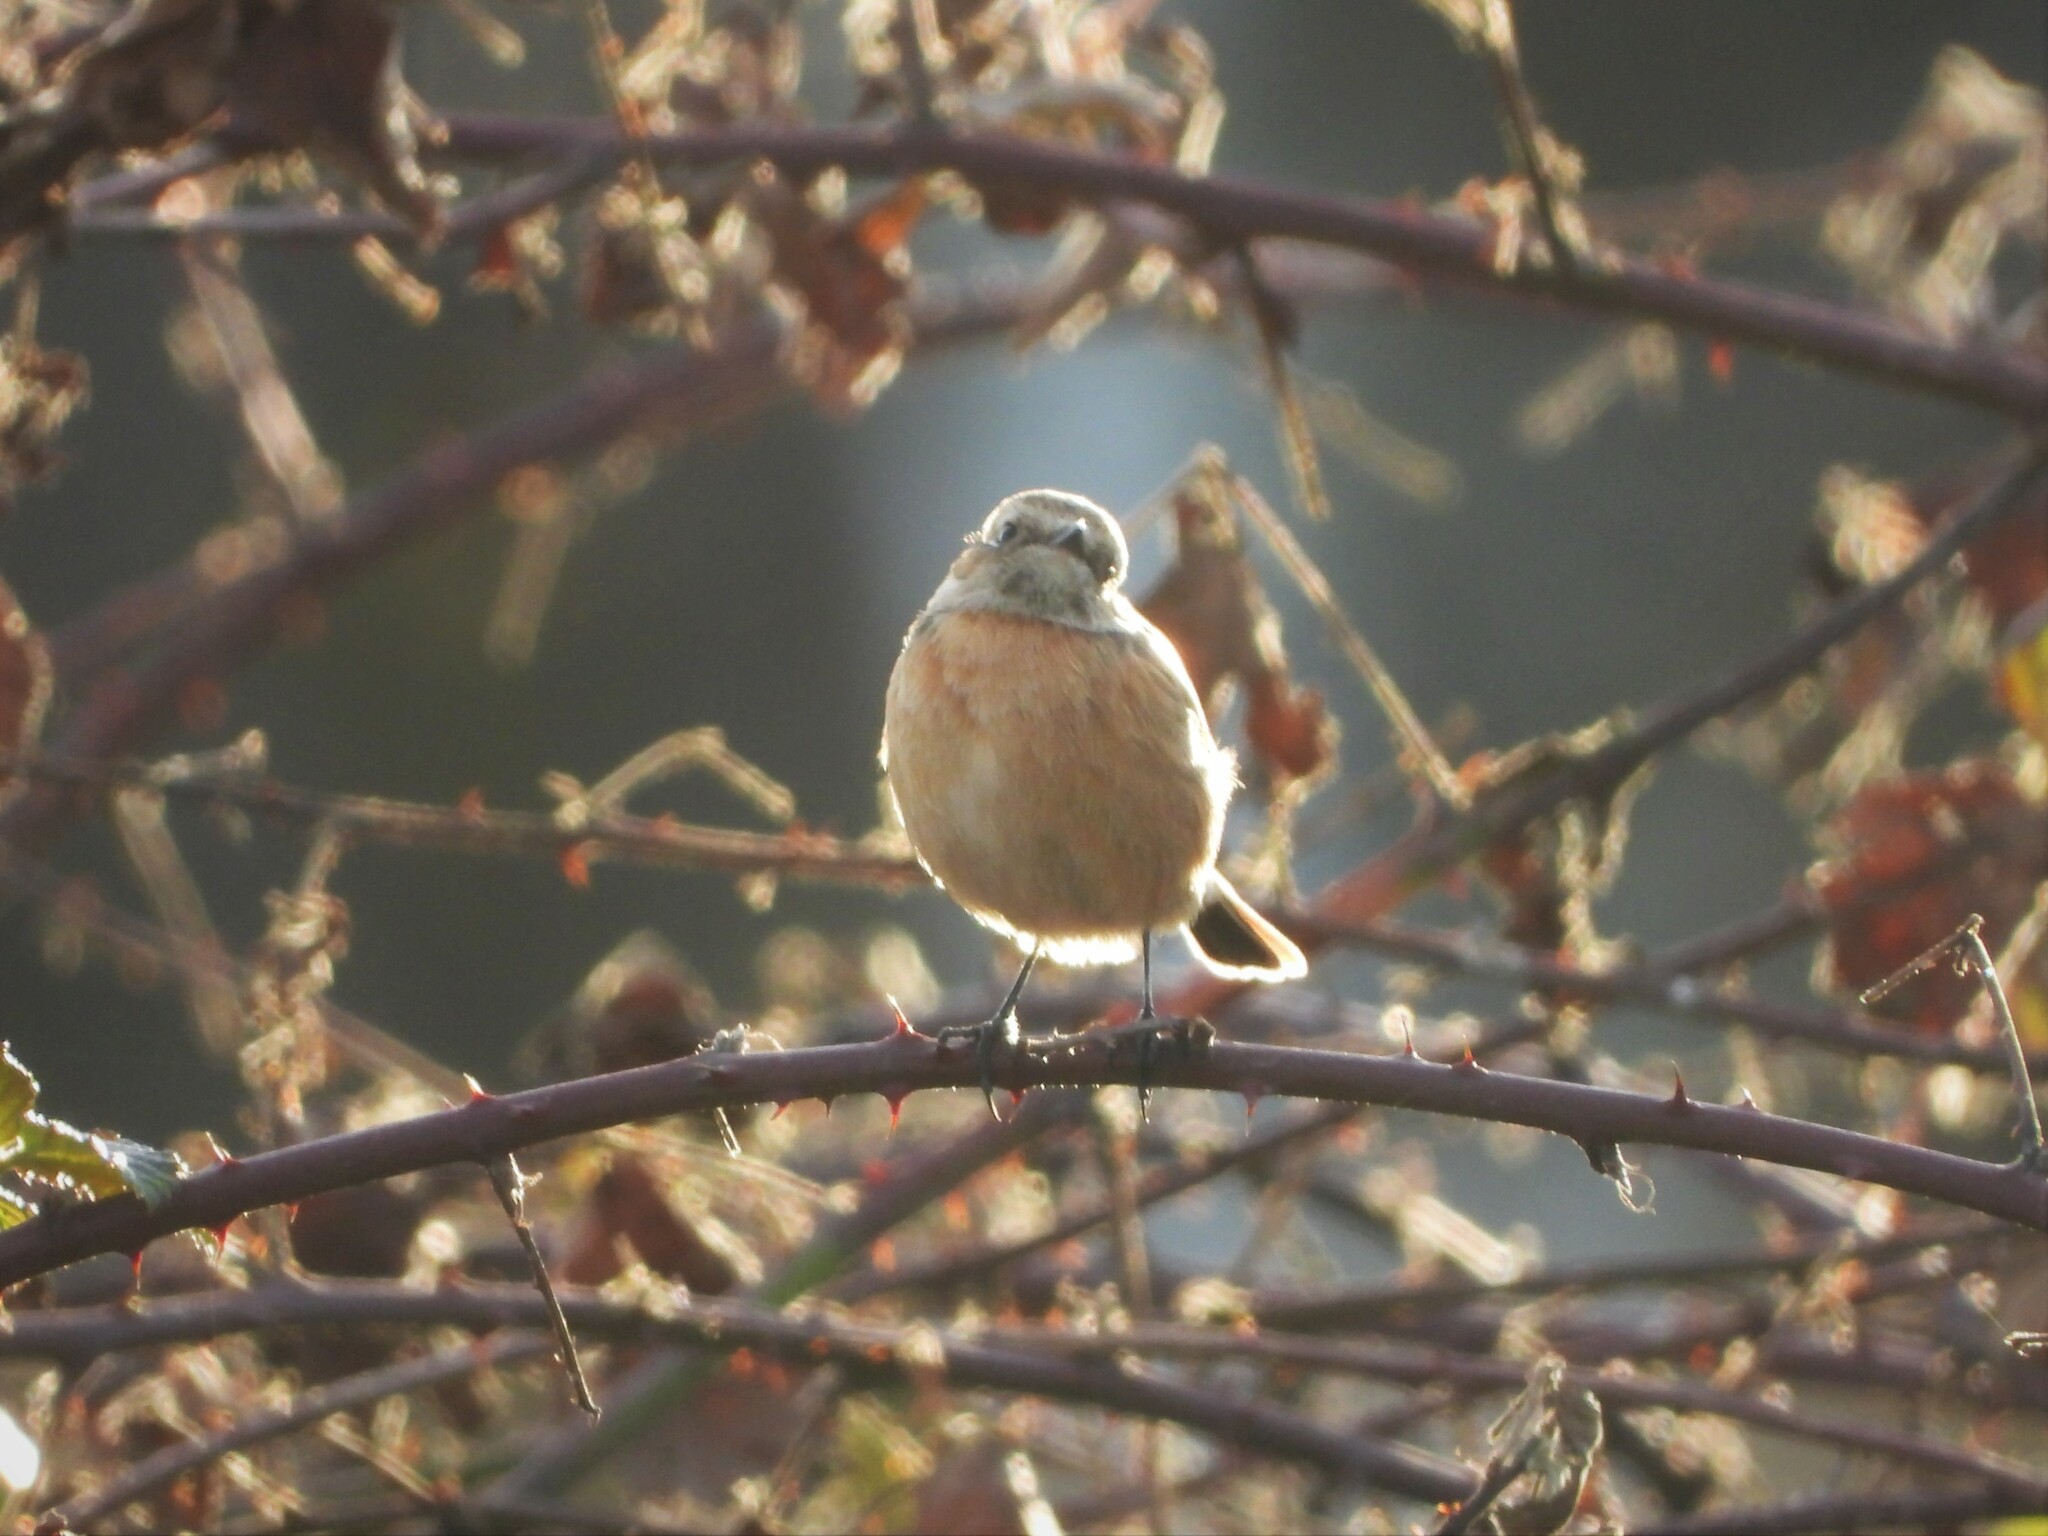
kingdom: Animalia
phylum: Chordata
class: Aves
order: Passeriformes
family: Muscicapidae
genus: Saxicola
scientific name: Saxicola rubicola
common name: European stonechat
